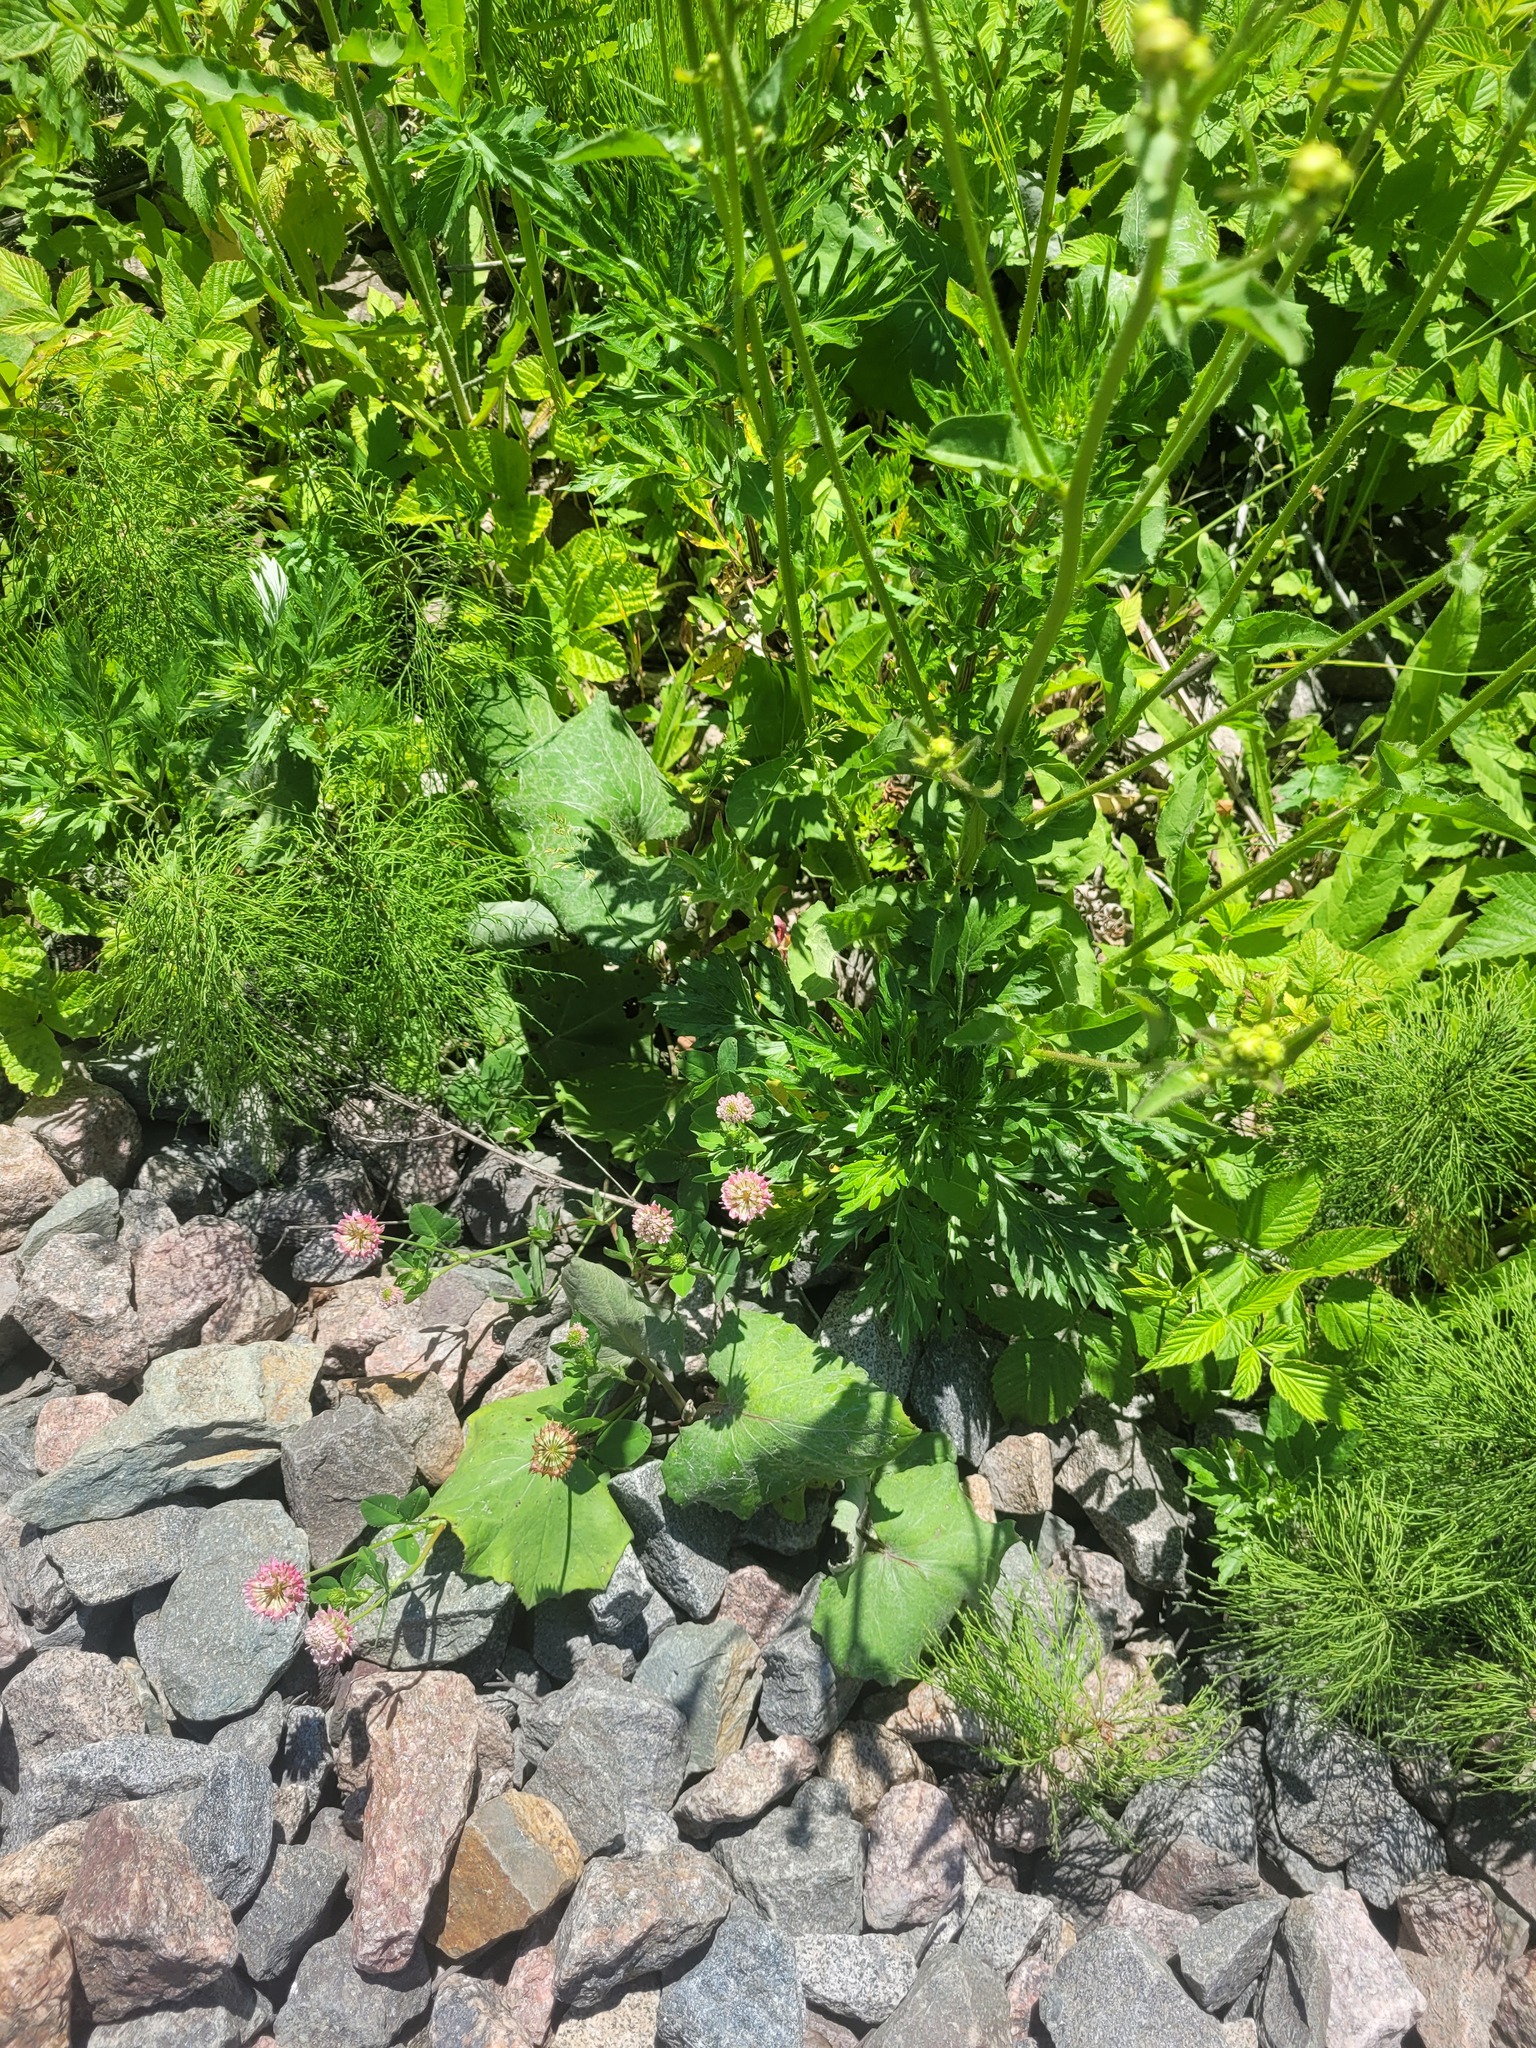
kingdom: Plantae
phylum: Tracheophyta
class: Magnoliopsida
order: Fabales
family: Fabaceae
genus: Trifolium
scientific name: Trifolium hybridum
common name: Alsike clover
